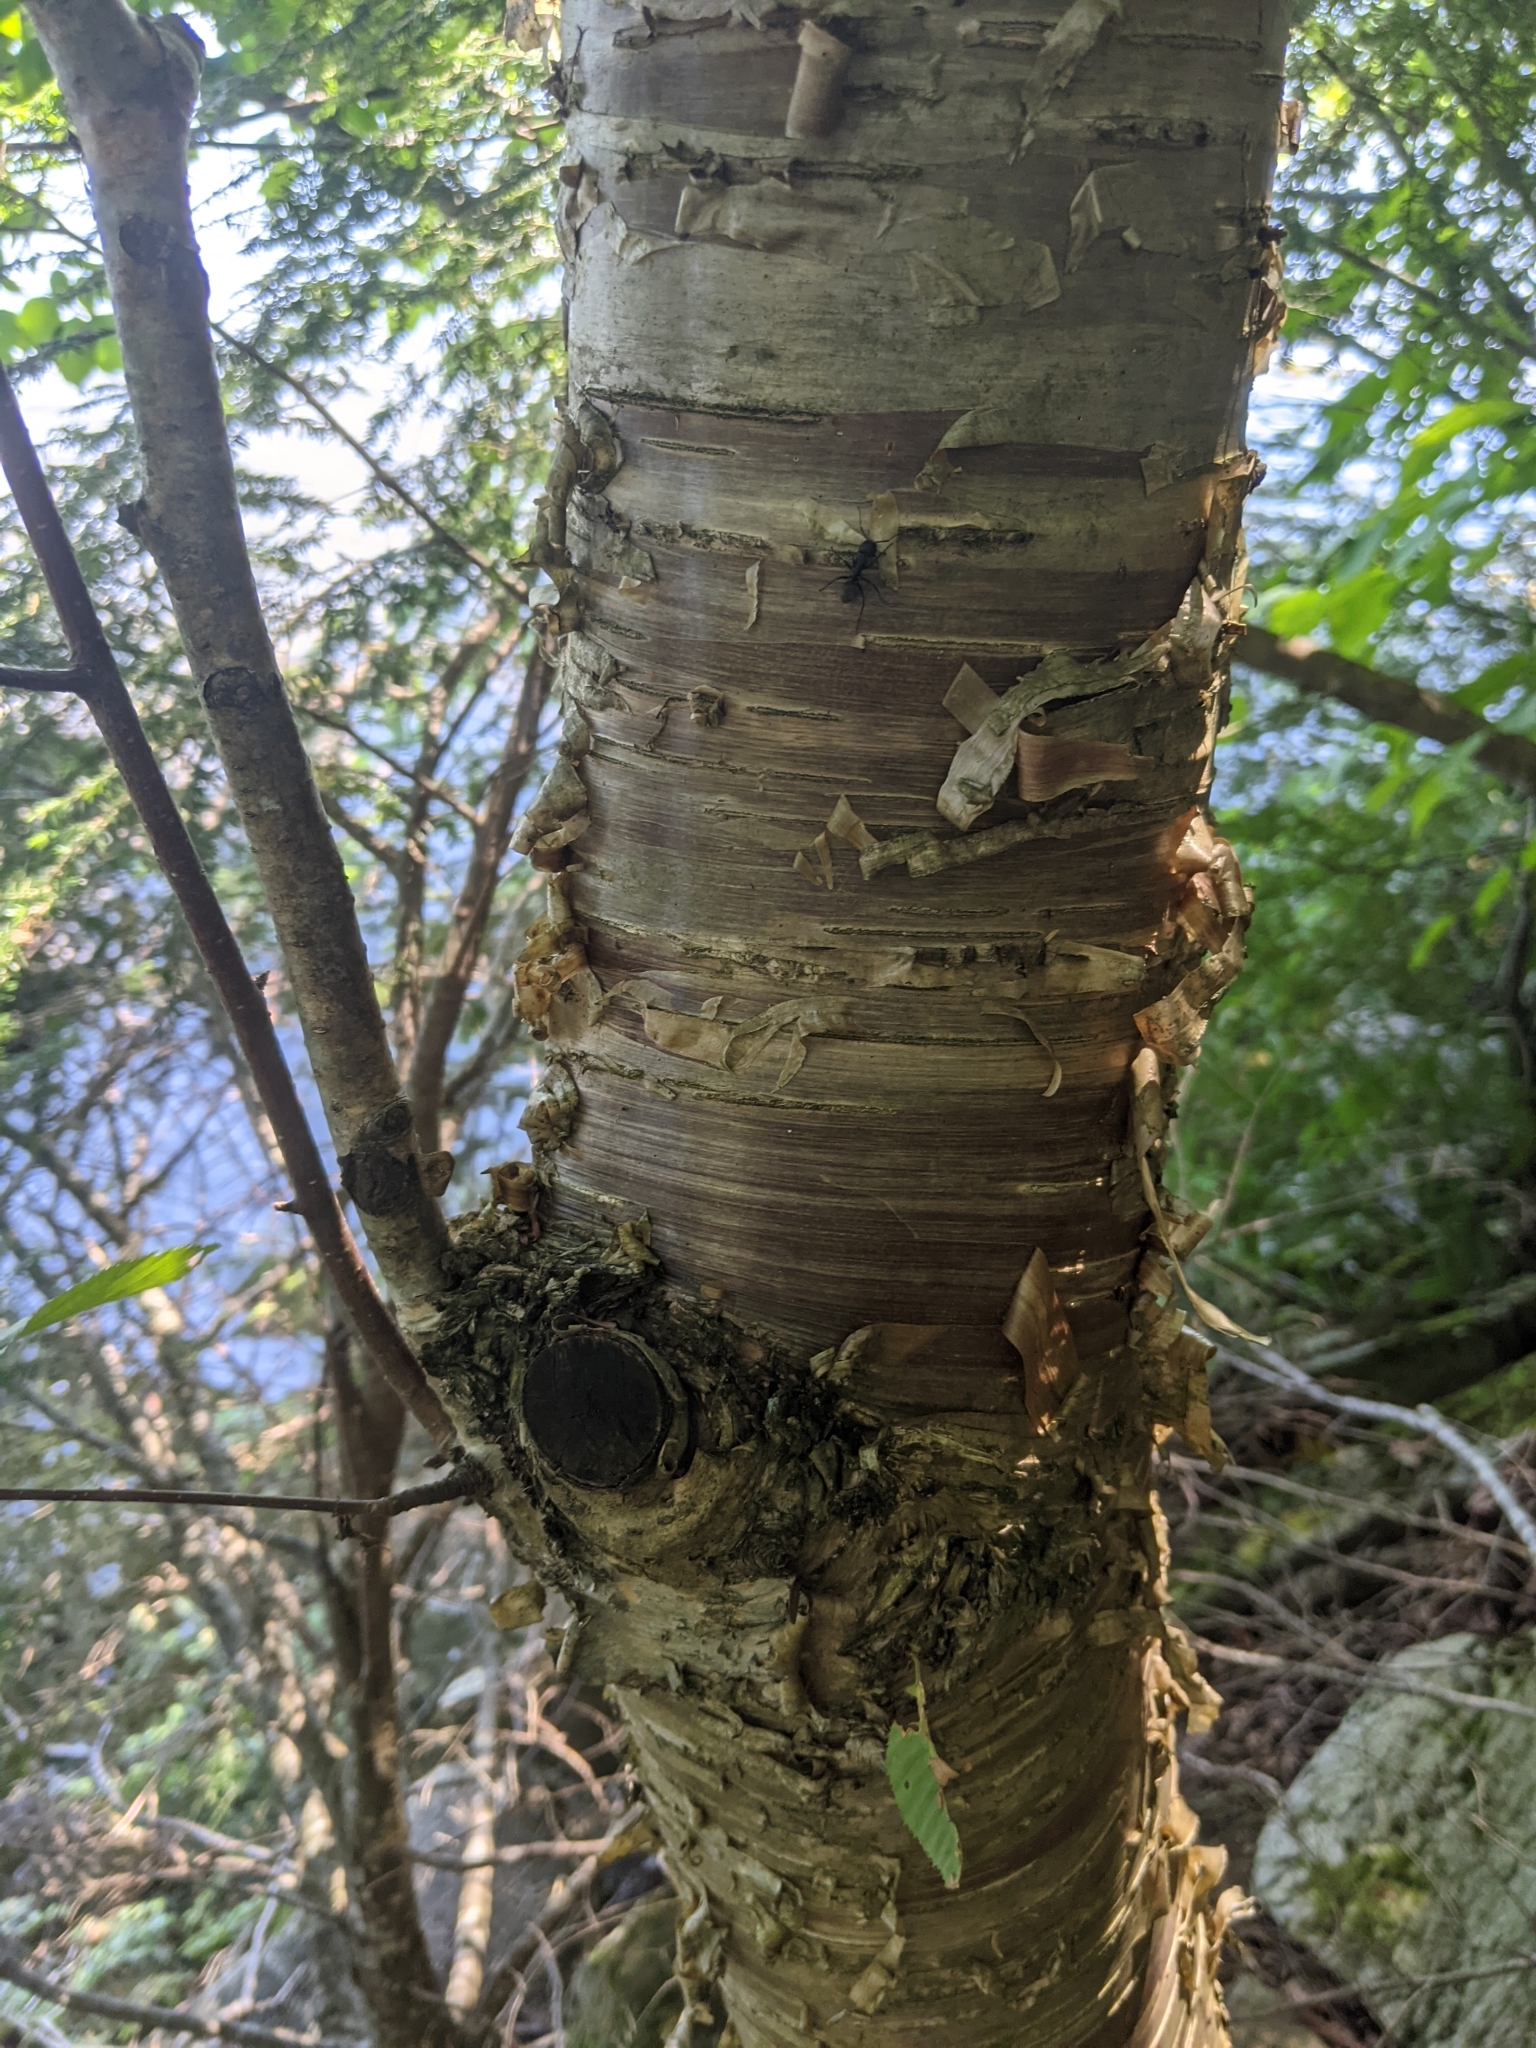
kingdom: Plantae
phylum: Tracheophyta
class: Magnoliopsida
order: Fagales
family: Betulaceae
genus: Betula
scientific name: Betula alleghaniensis
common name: Yellow birch
